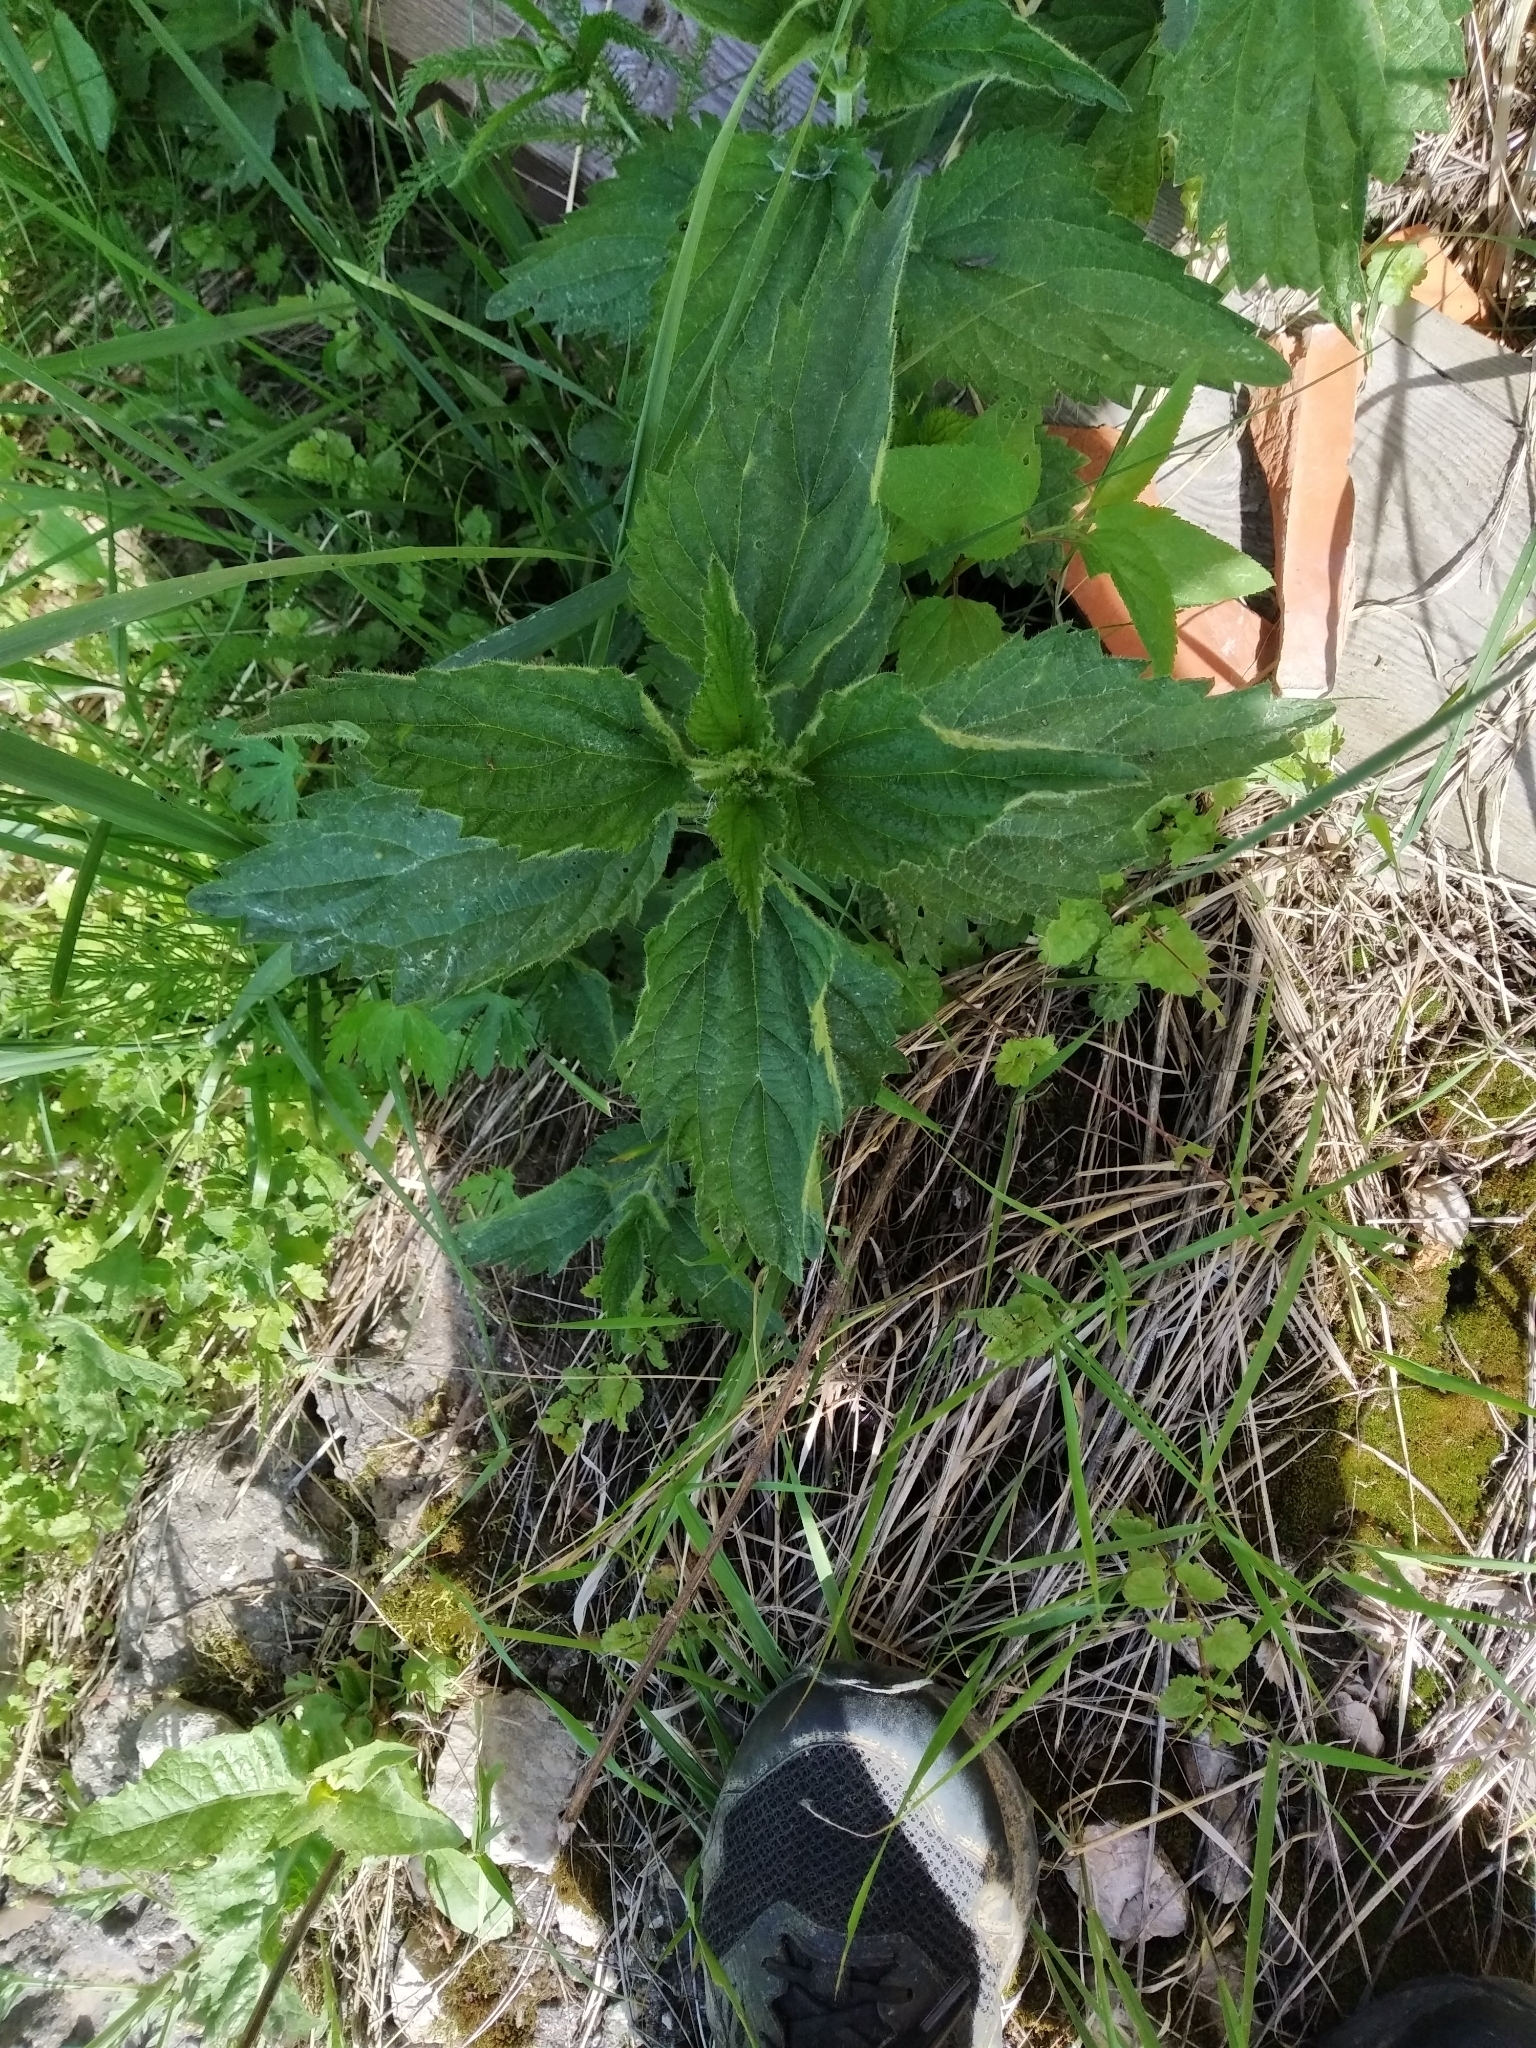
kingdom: Plantae
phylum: Tracheophyta
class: Magnoliopsida
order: Rosales
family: Urticaceae
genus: Urtica
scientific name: Urtica dioica
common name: Common nettle
